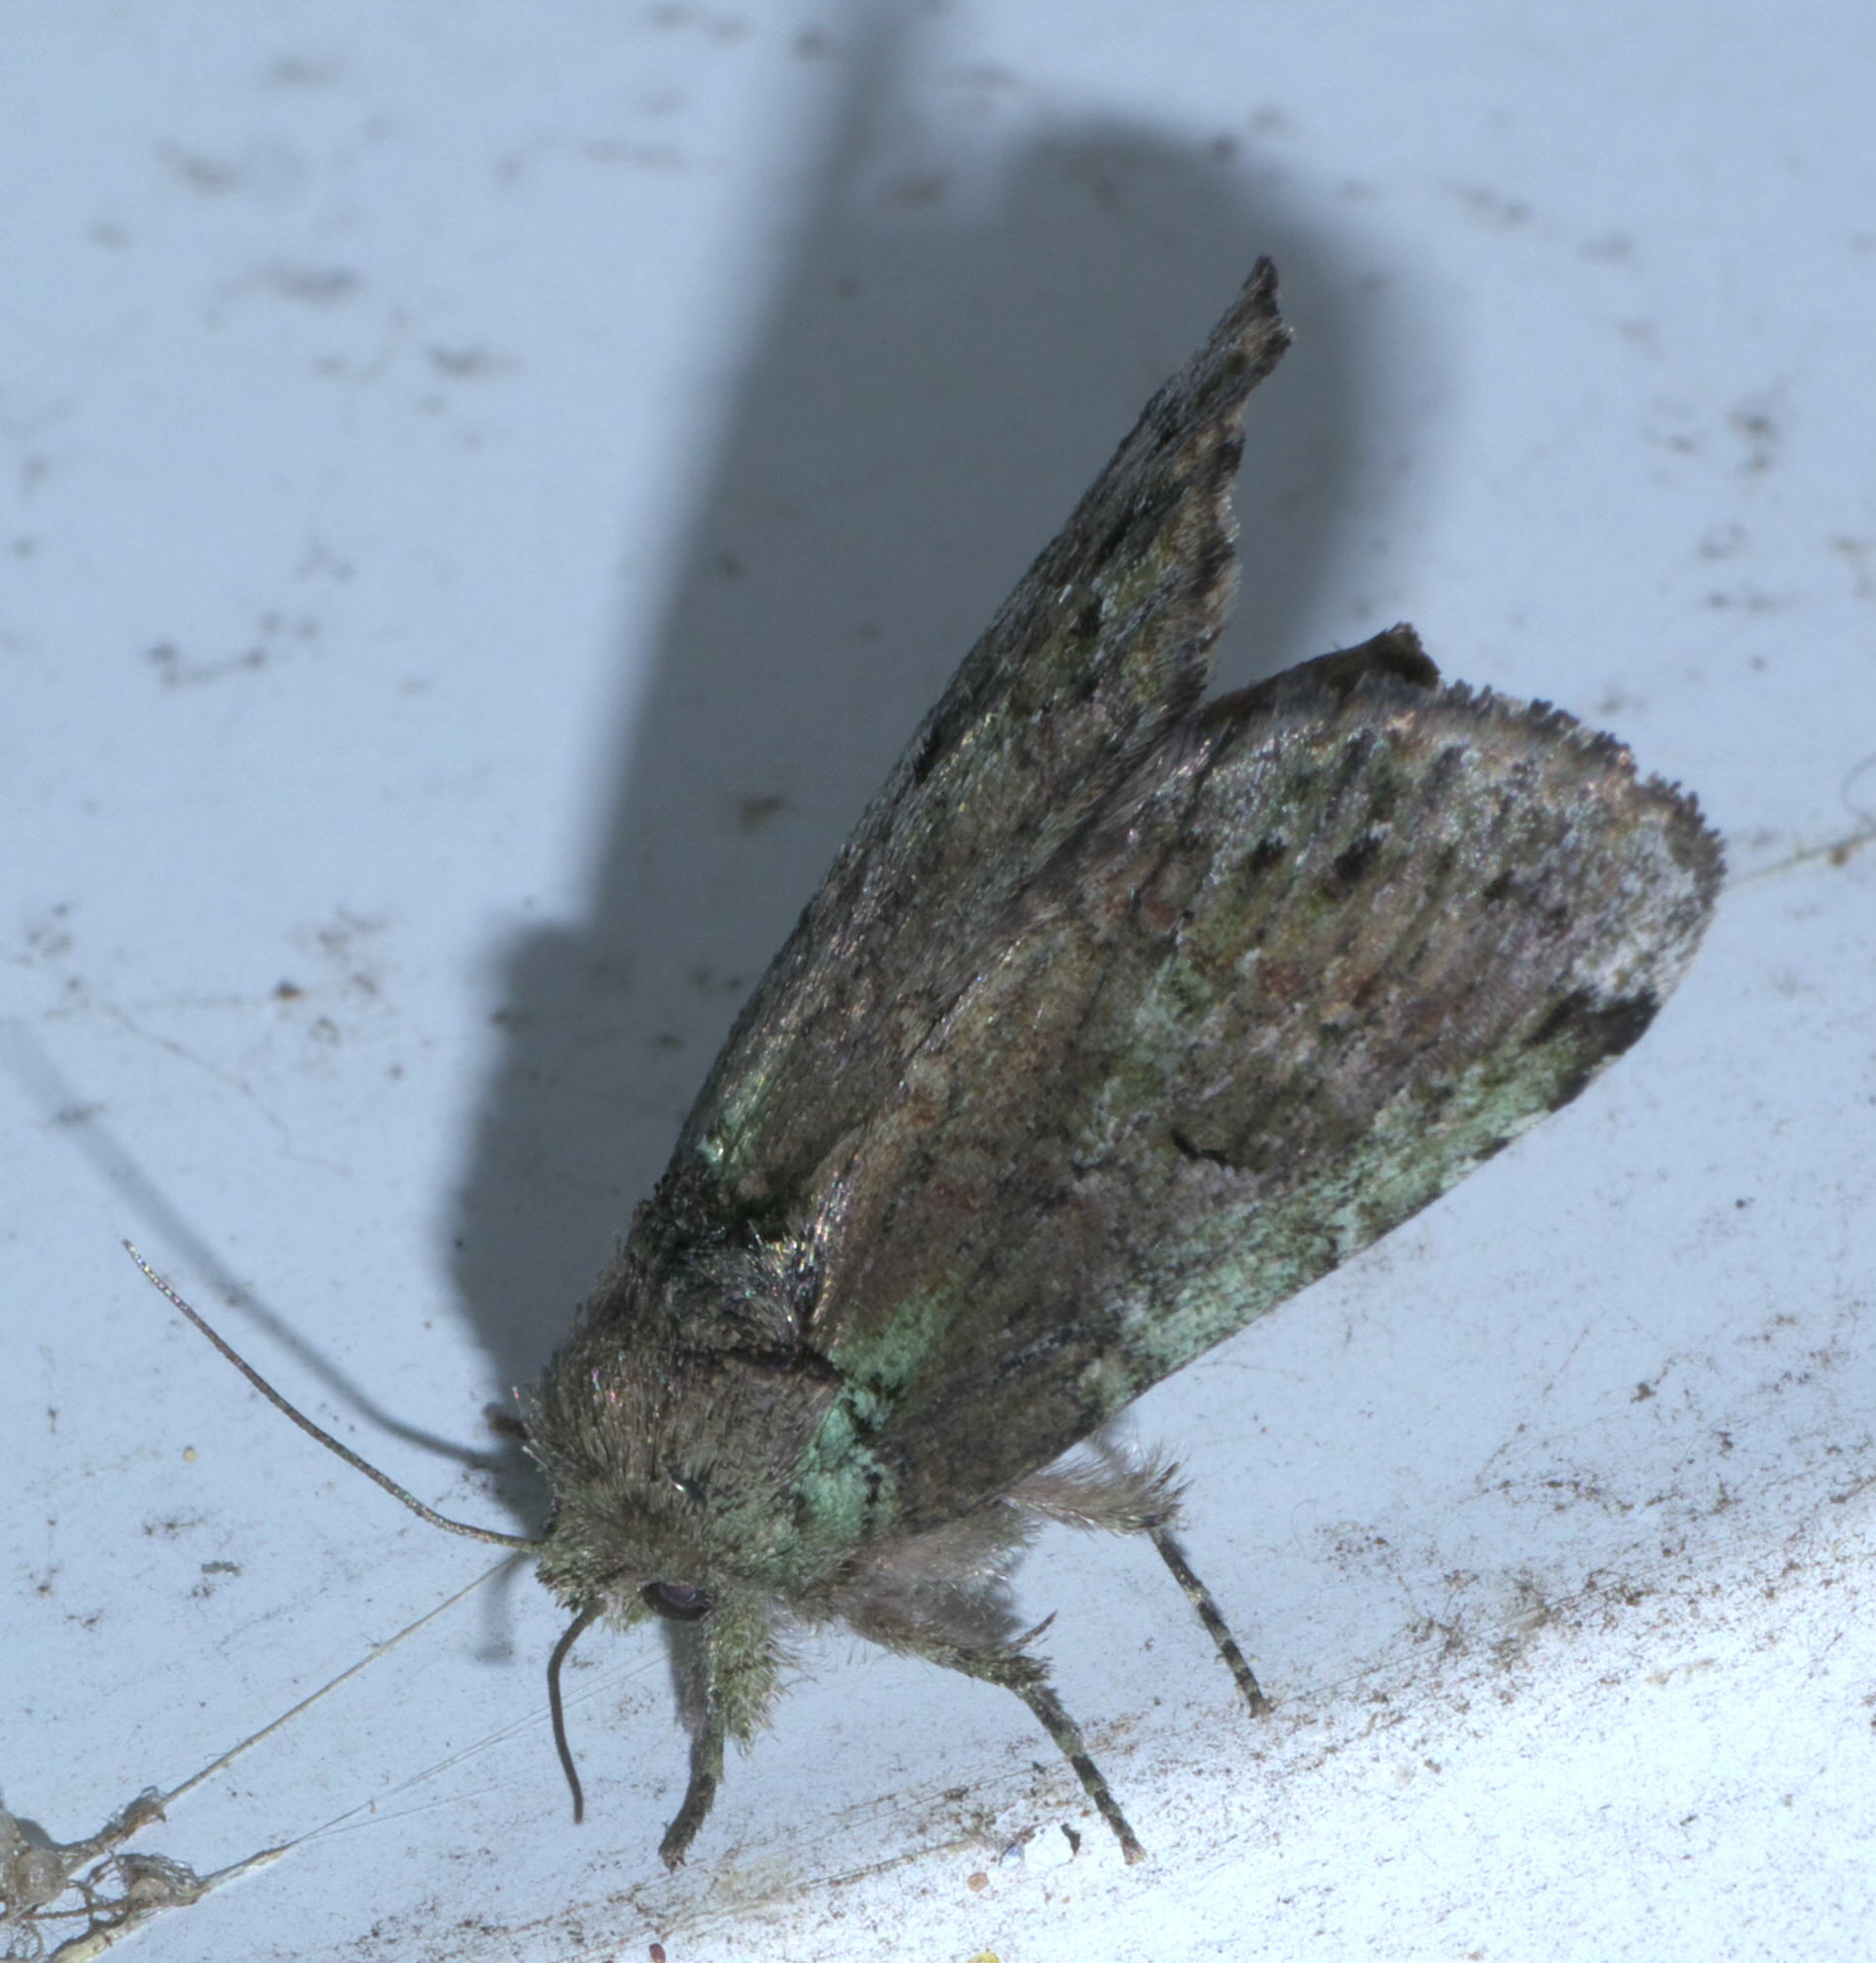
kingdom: Animalia
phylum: Arthropoda
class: Insecta
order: Lepidoptera
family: Notodontidae
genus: Schizura
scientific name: Schizura
